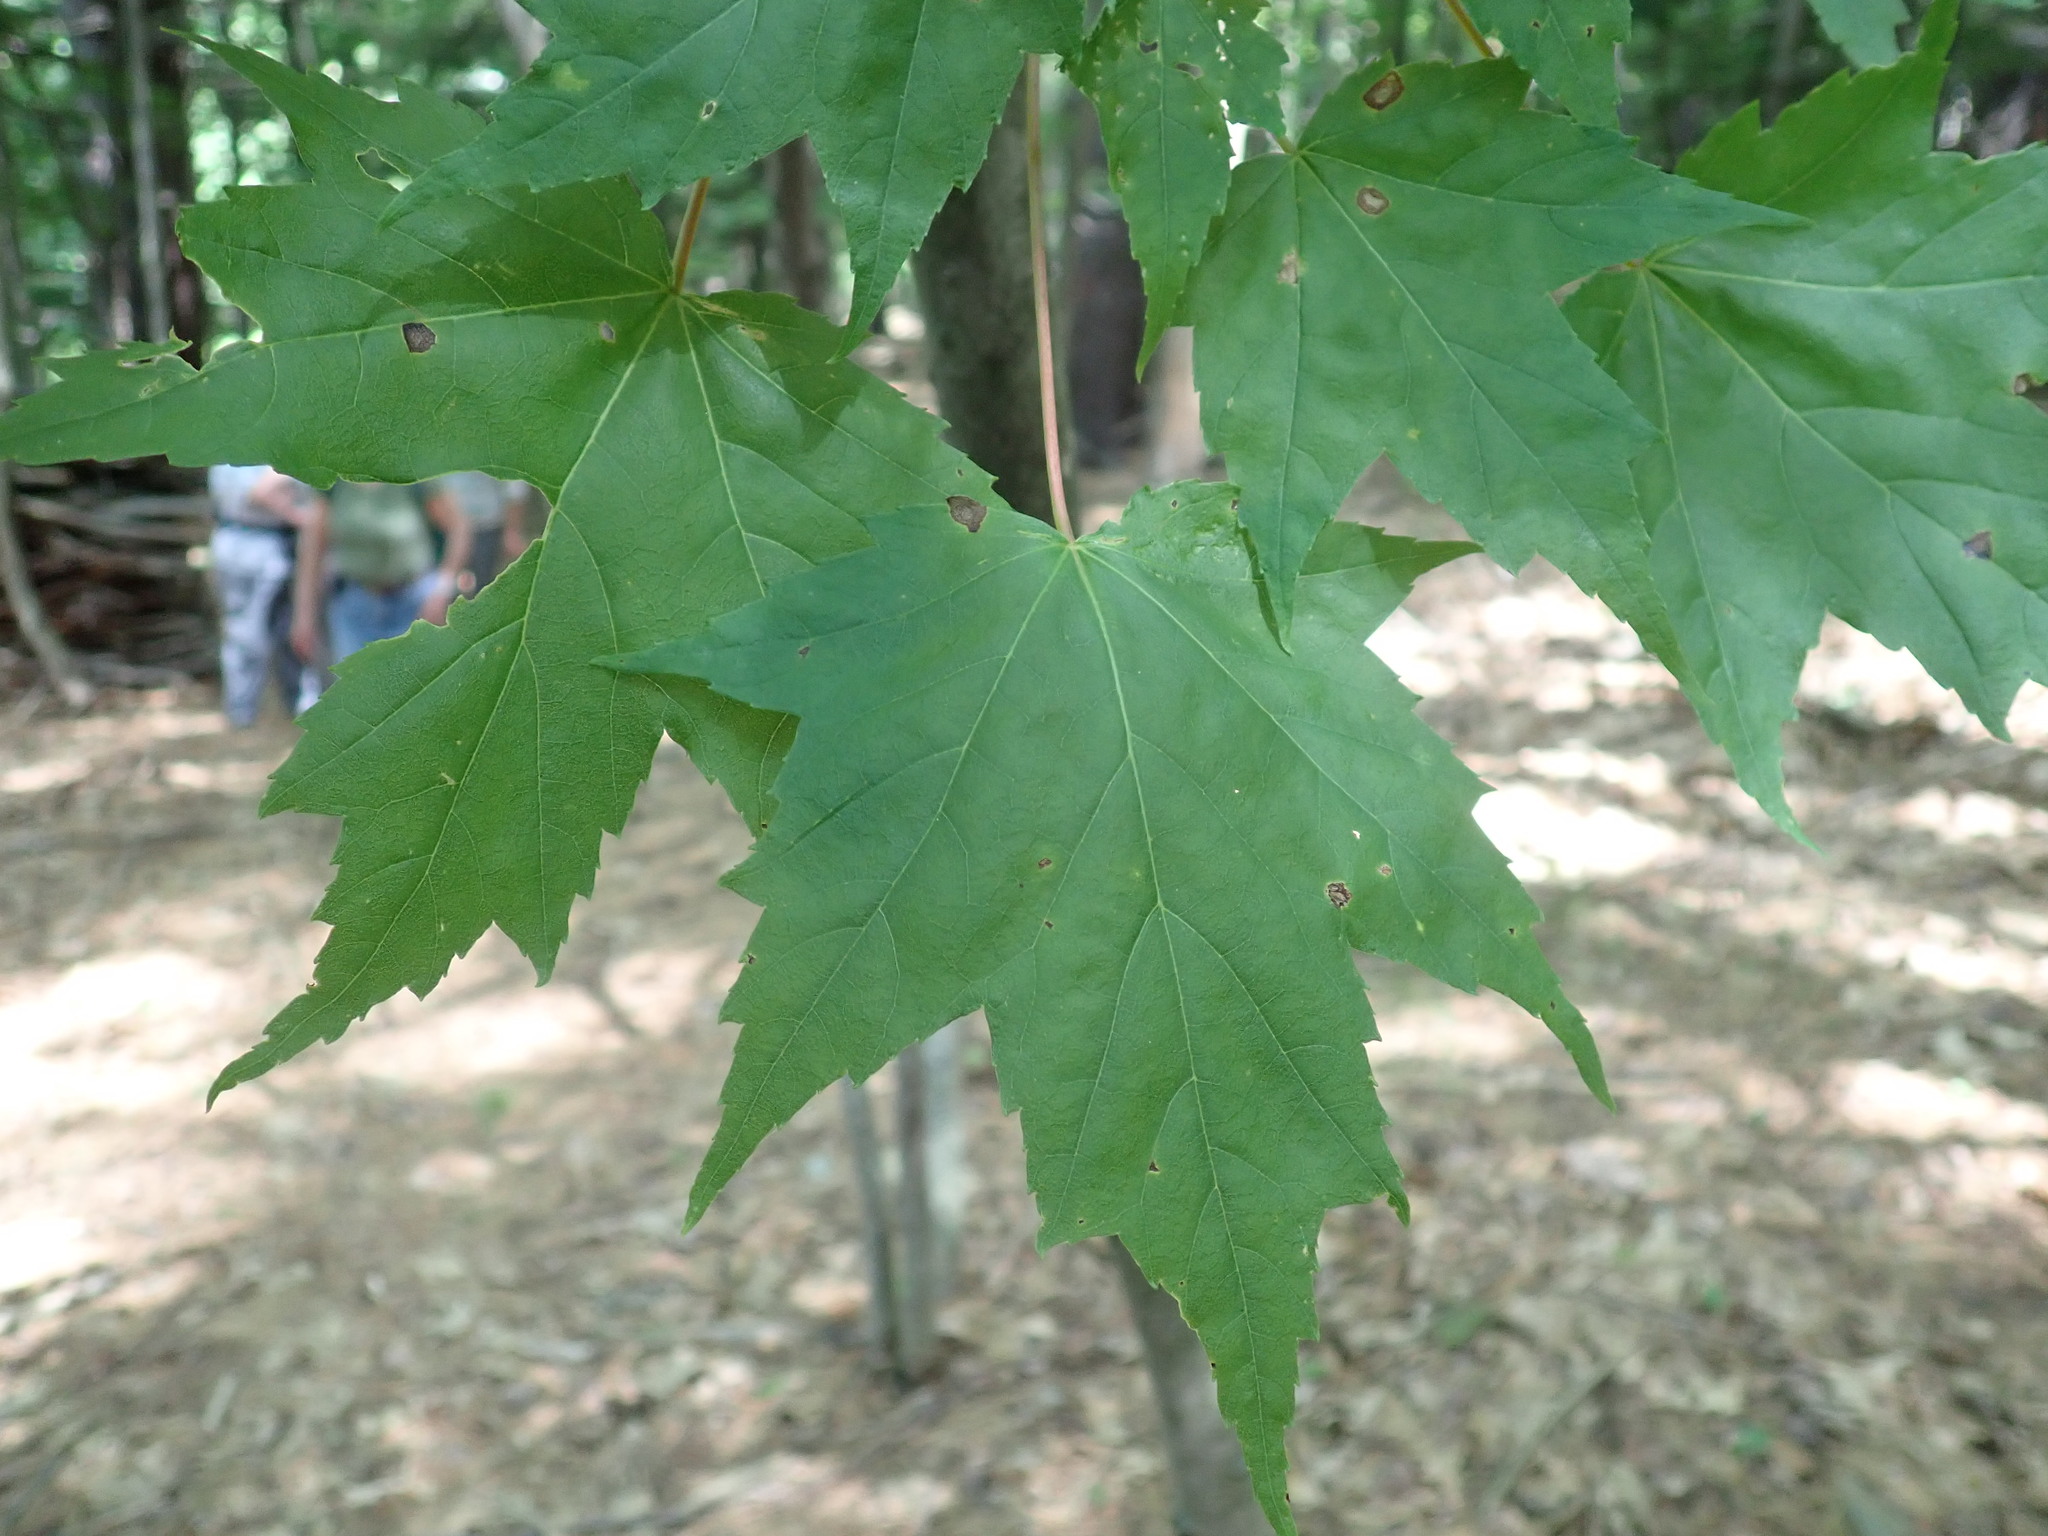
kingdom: Plantae
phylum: Tracheophyta
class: Magnoliopsida
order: Sapindales
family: Sapindaceae
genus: Acer
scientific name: Acer rubrum
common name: Red maple
